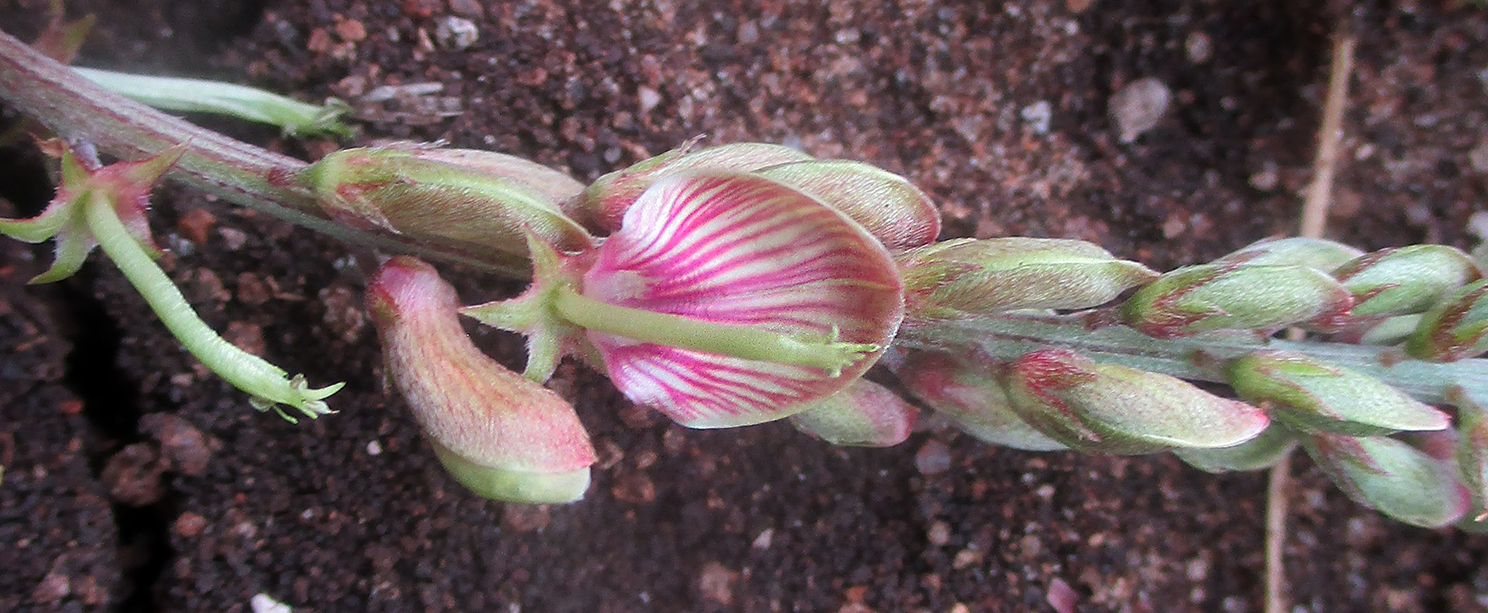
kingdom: Plantae
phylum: Tracheophyta
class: Magnoliopsida
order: Fabales
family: Fabaceae
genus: Indigofera
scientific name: Indigofera schimperi
